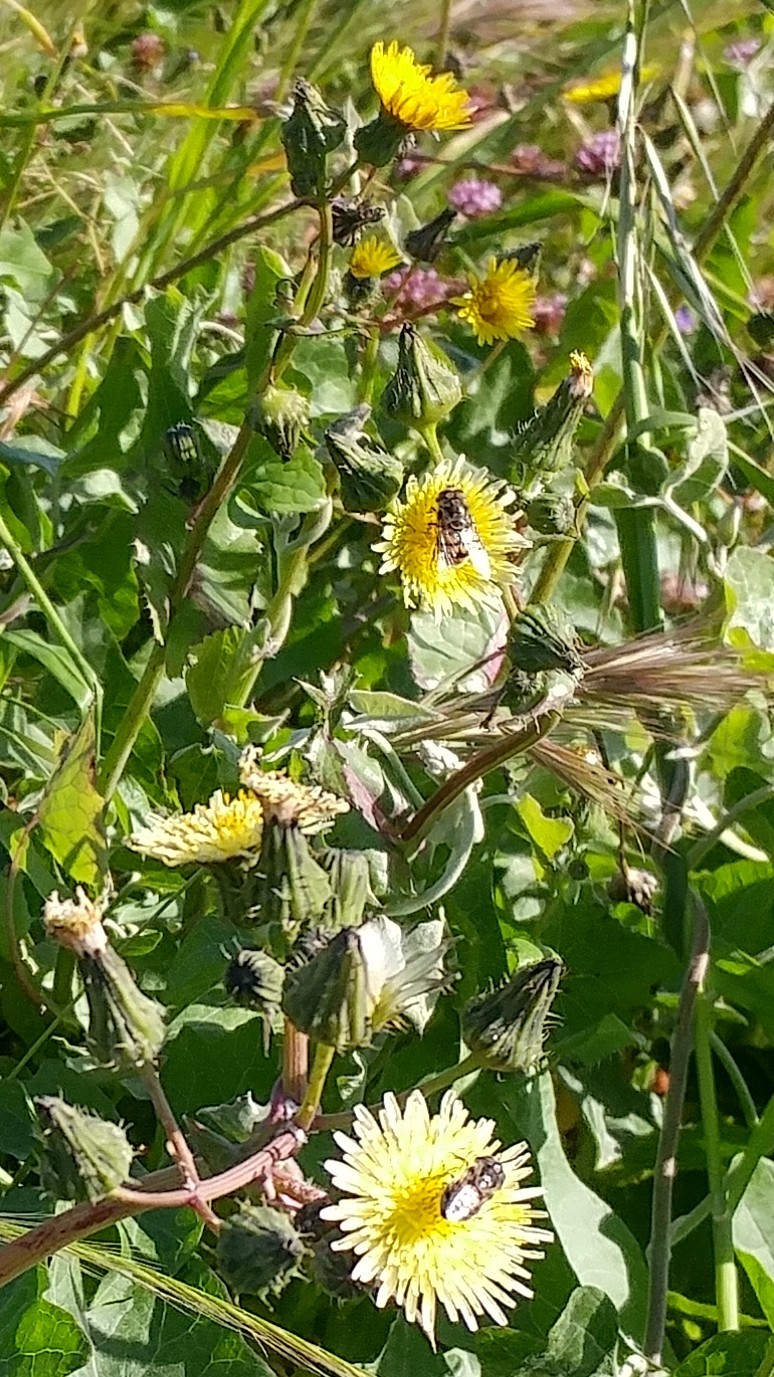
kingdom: Animalia
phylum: Arthropoda
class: Insecta
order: Diptera
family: Syrphidae
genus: Copestylum
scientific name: Copestylum avidum
